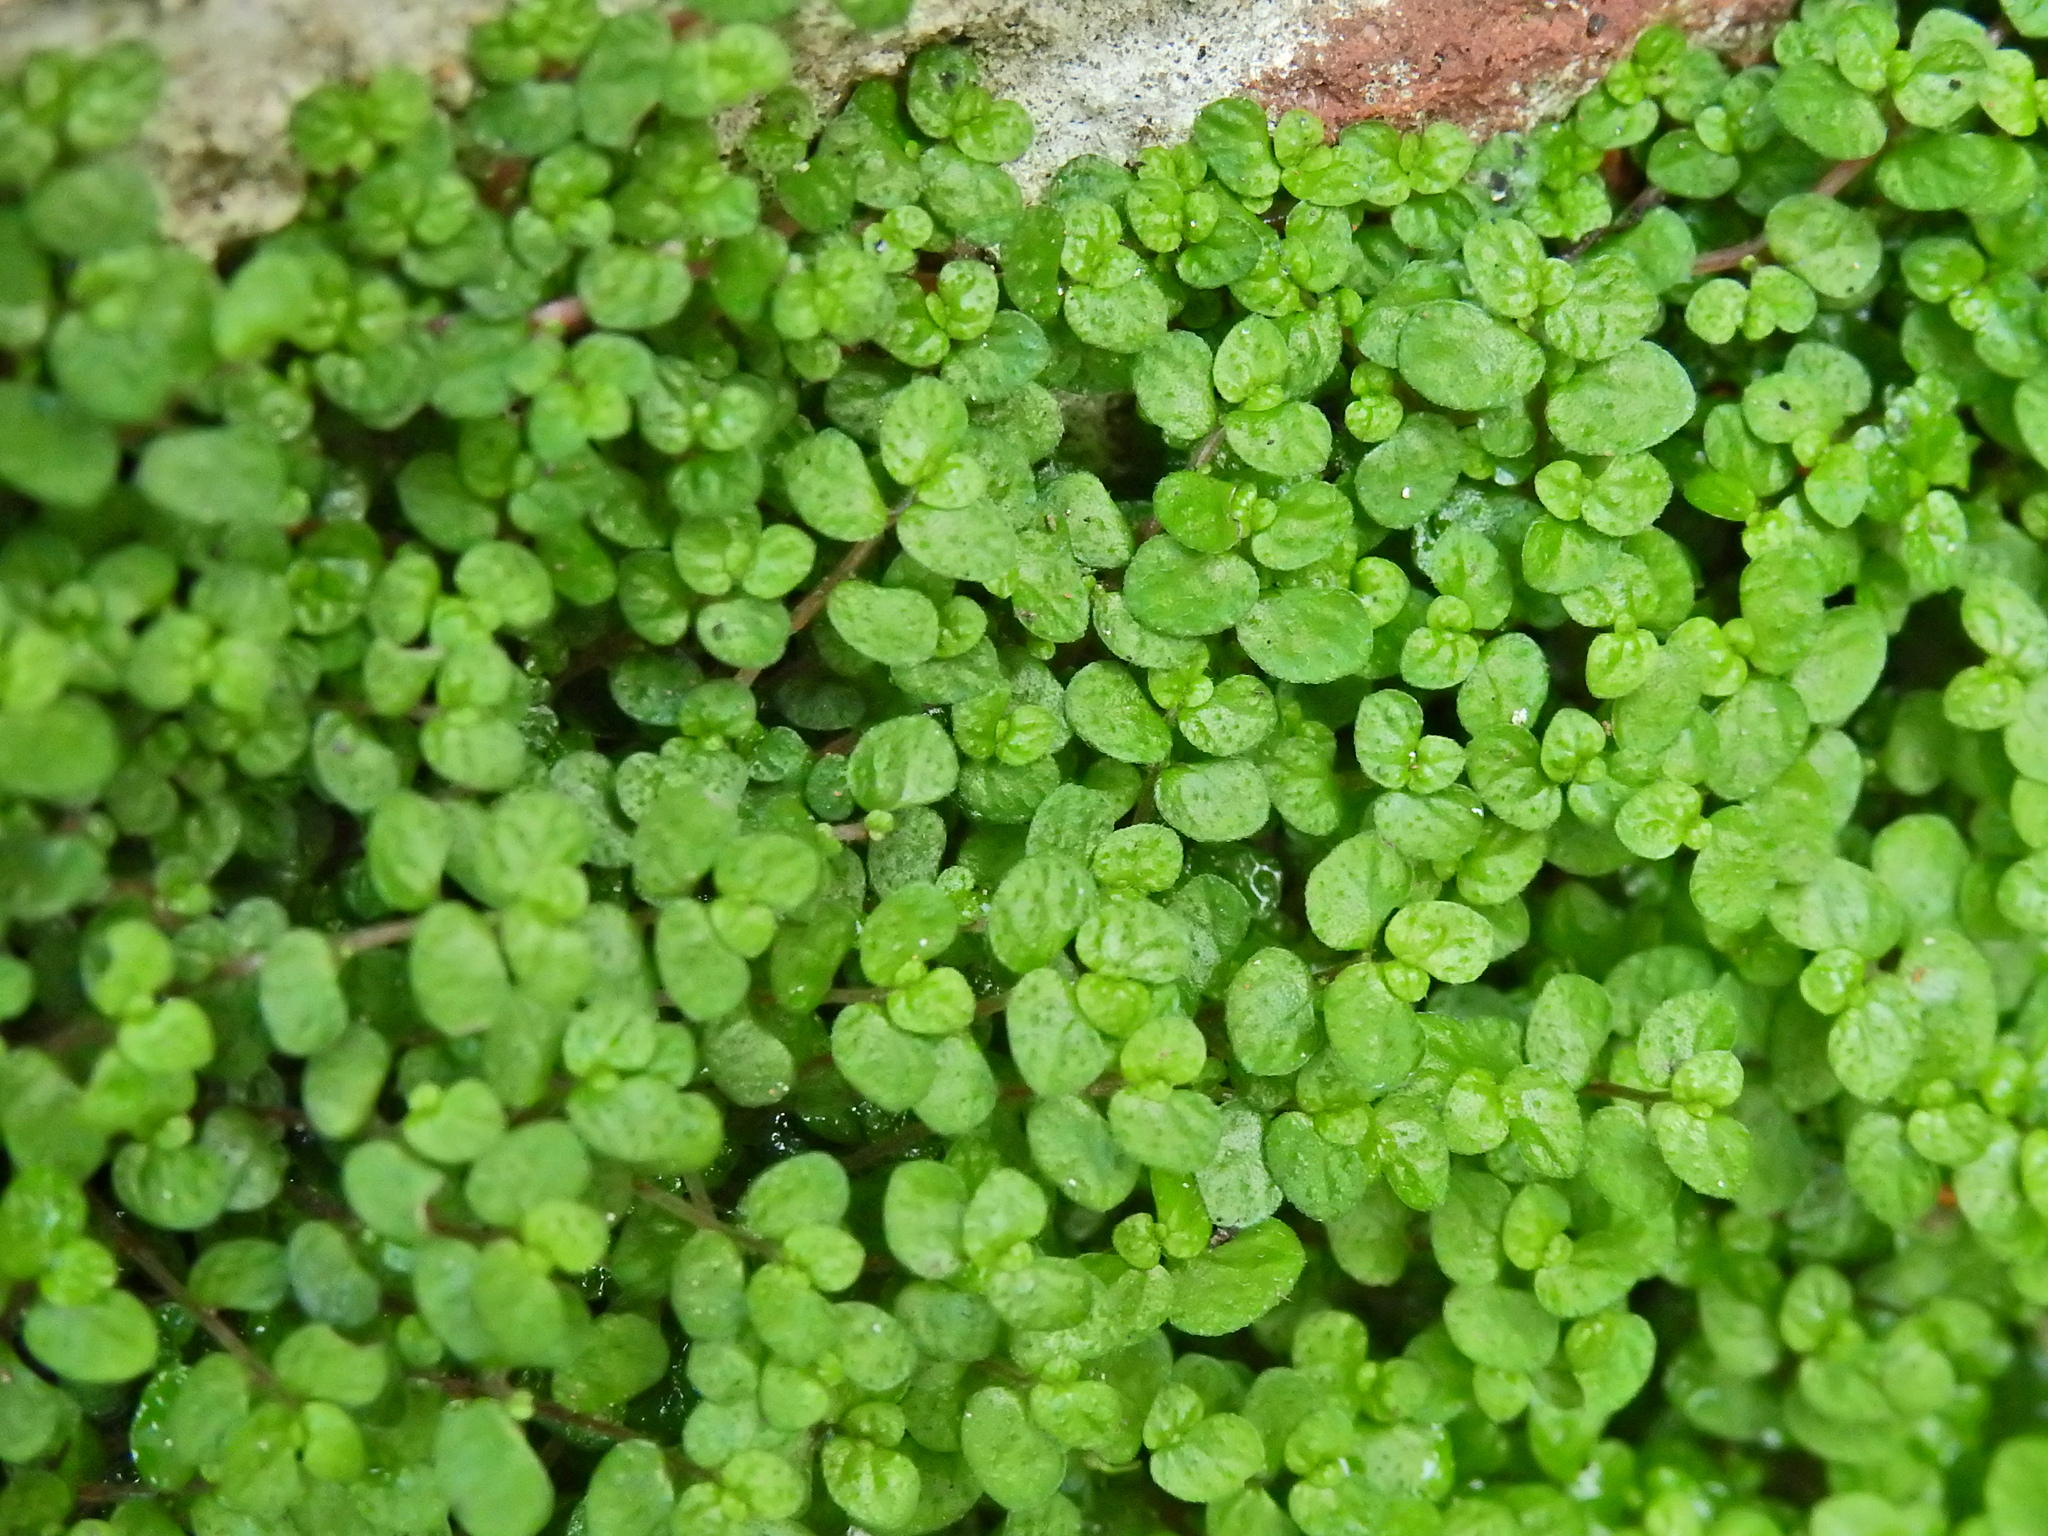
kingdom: Plantae
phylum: Tracheophyta
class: Magnoliopsida
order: Rosales
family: Urticaceae
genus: Soleirolia
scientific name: Soleirolia soleirolii
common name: Mind-your-own-business
